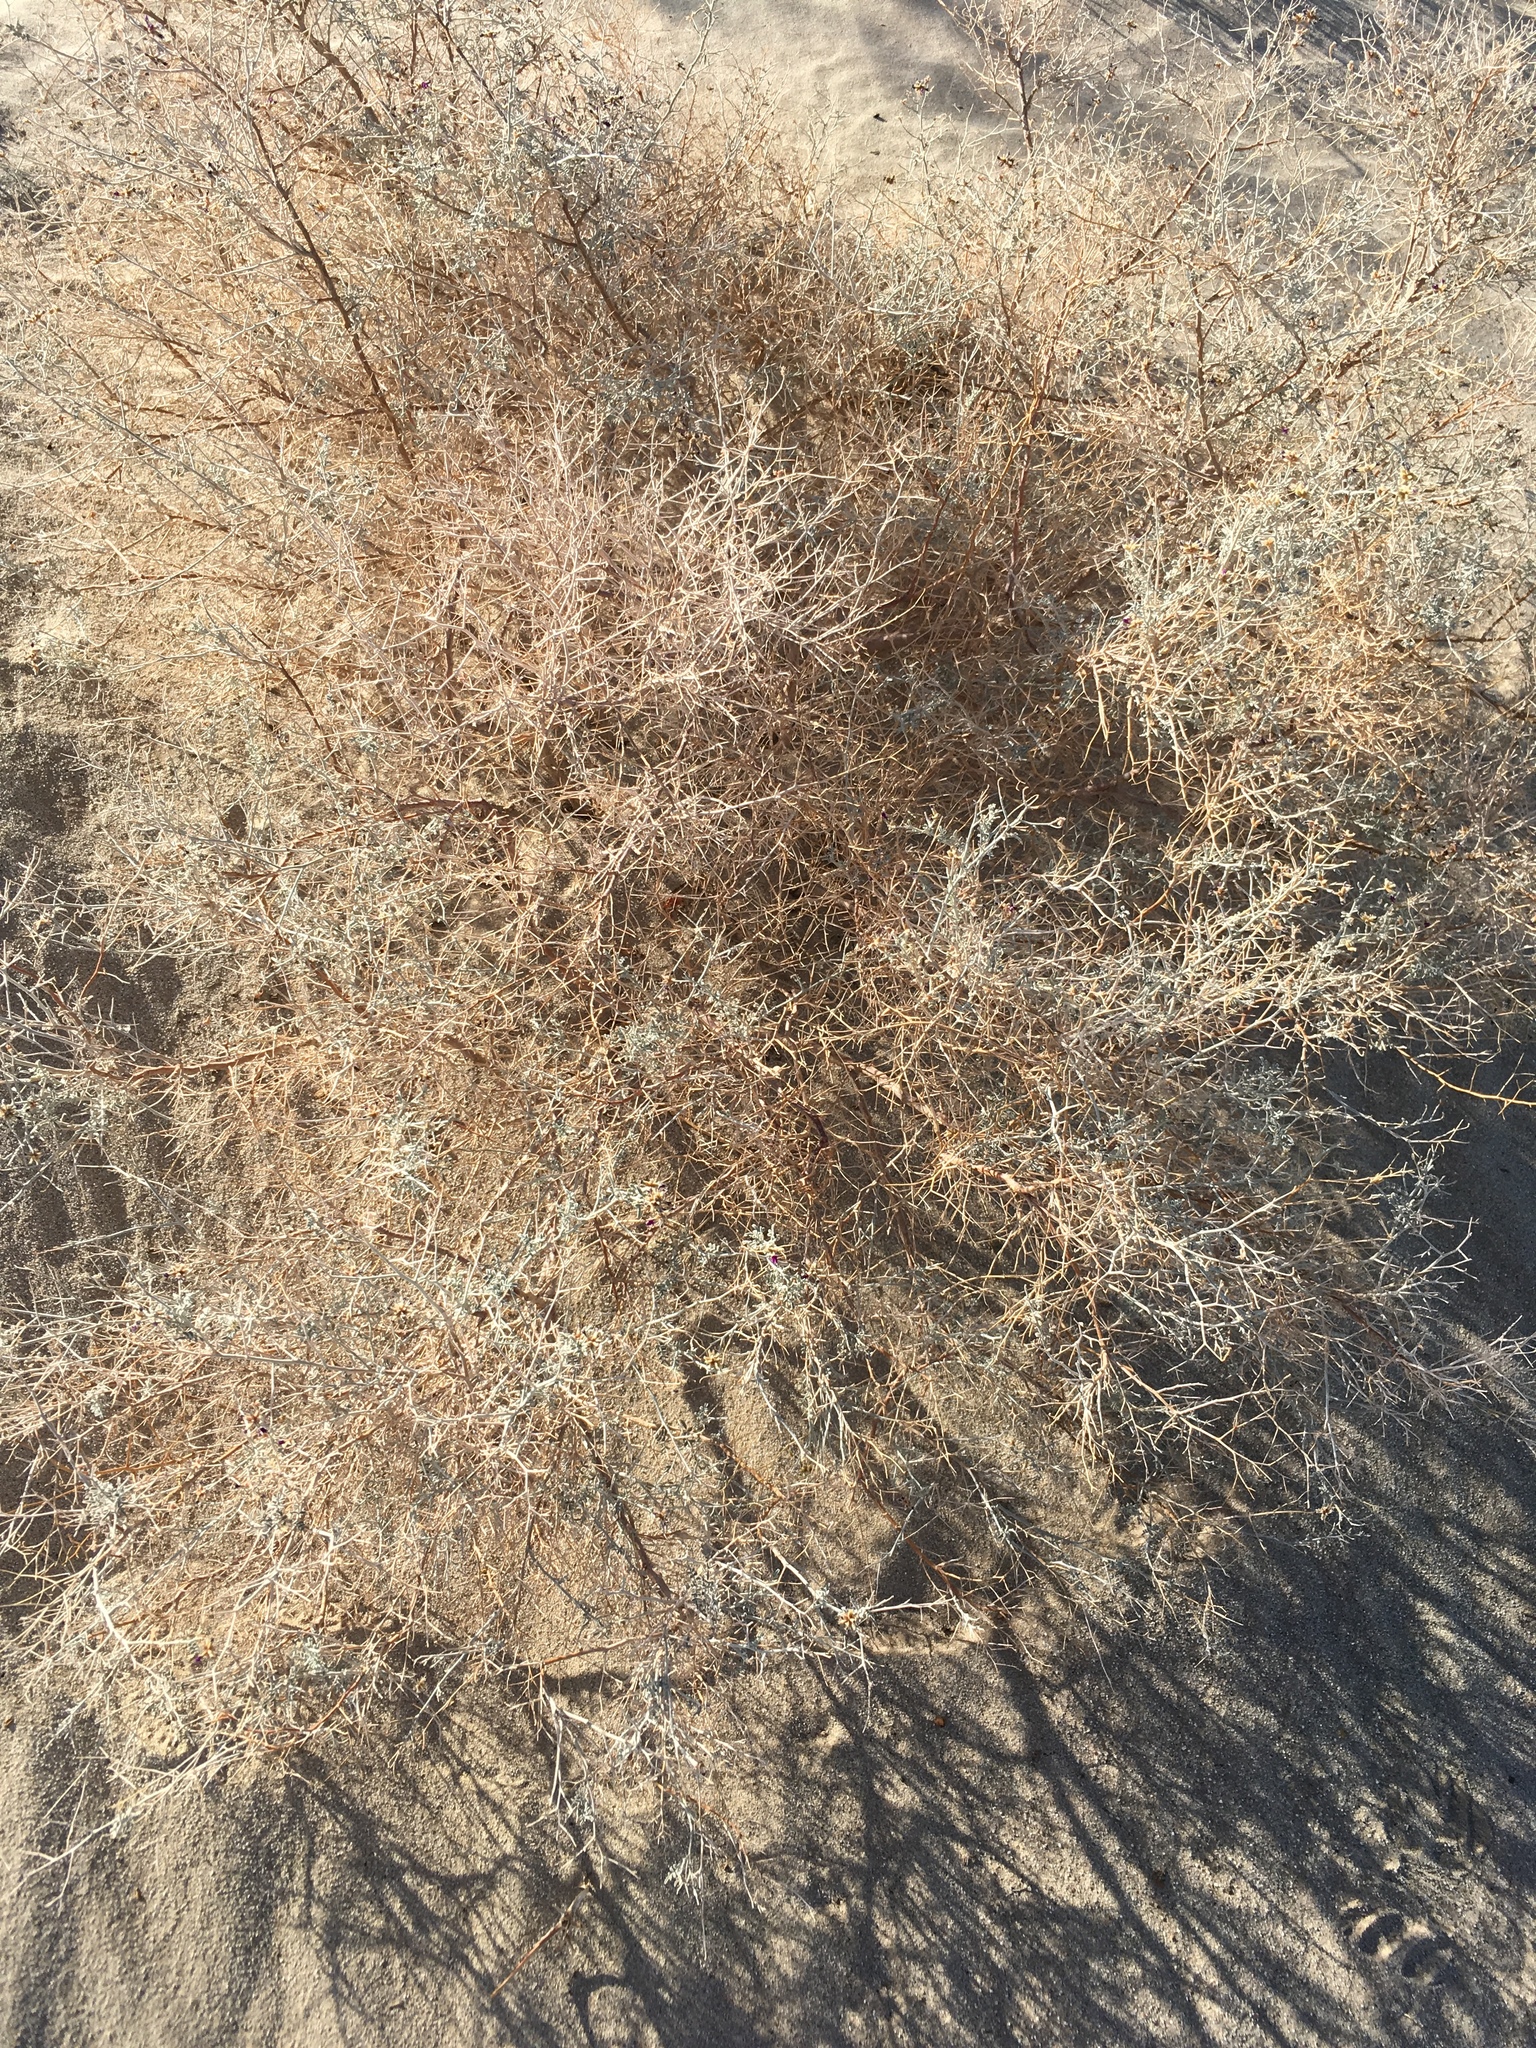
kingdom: Plantae
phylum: Tracheophyta
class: Magnoliopsida
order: Fabales
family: Fabaceae
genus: Psorothamnus
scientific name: Psorothamnus emoryi
